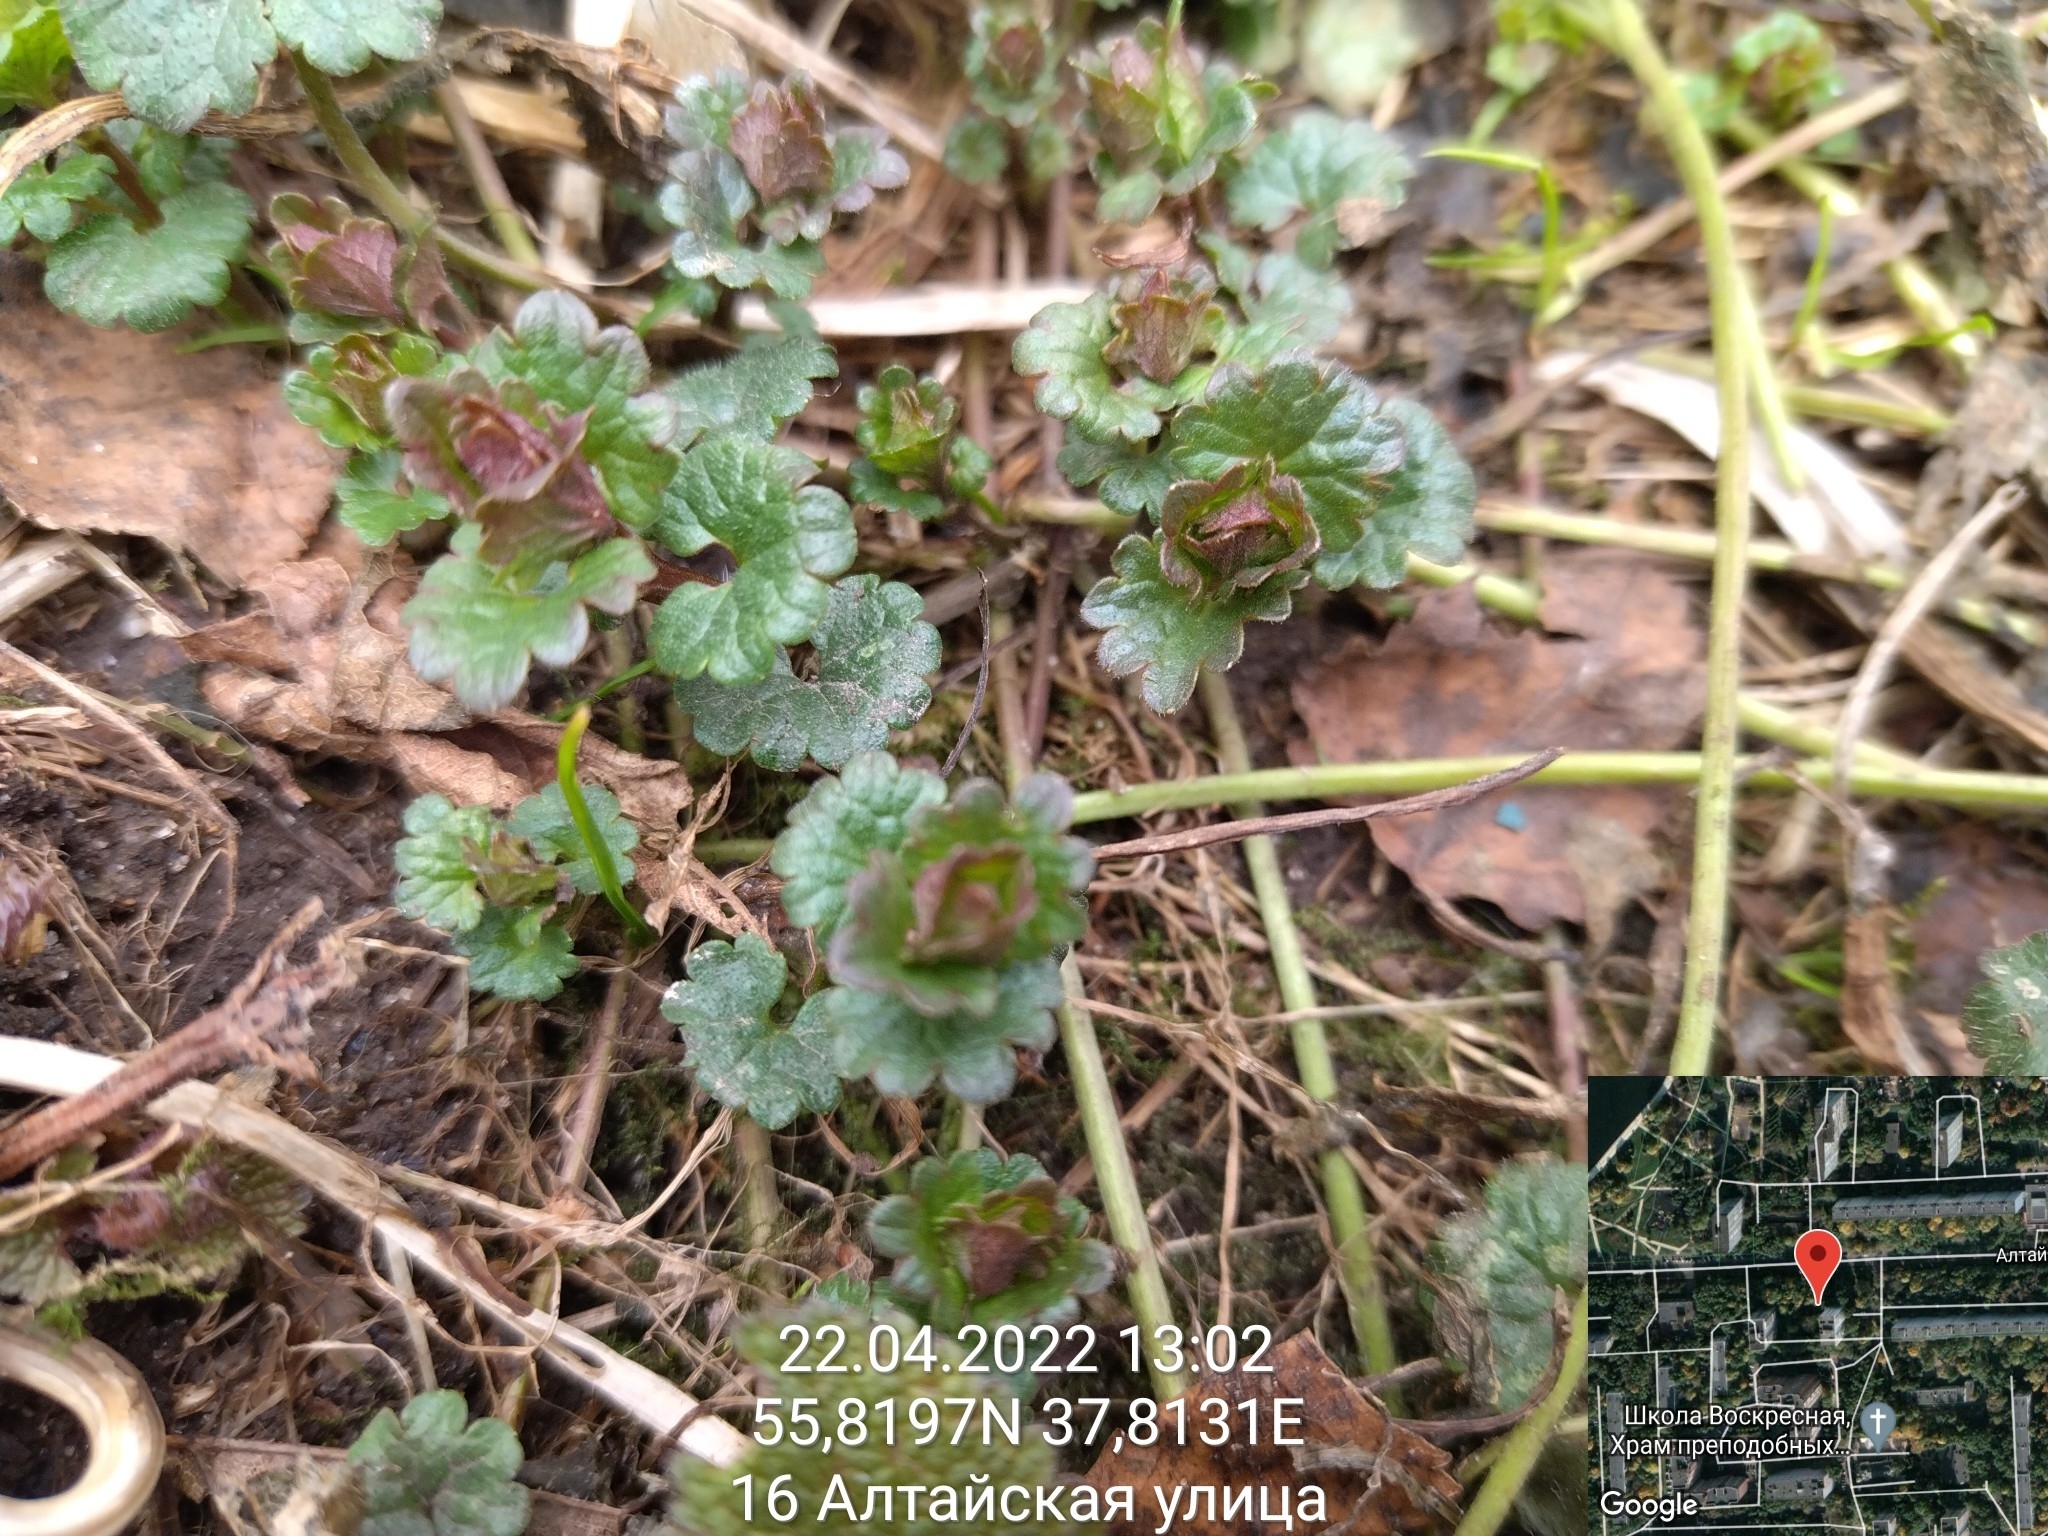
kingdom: Plantae
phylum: Tracheophyta
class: Magnoliopsida
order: Lamiales
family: Lamiaceae
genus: Glechoma
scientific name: Glechoma hederacea
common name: Ground ivy
